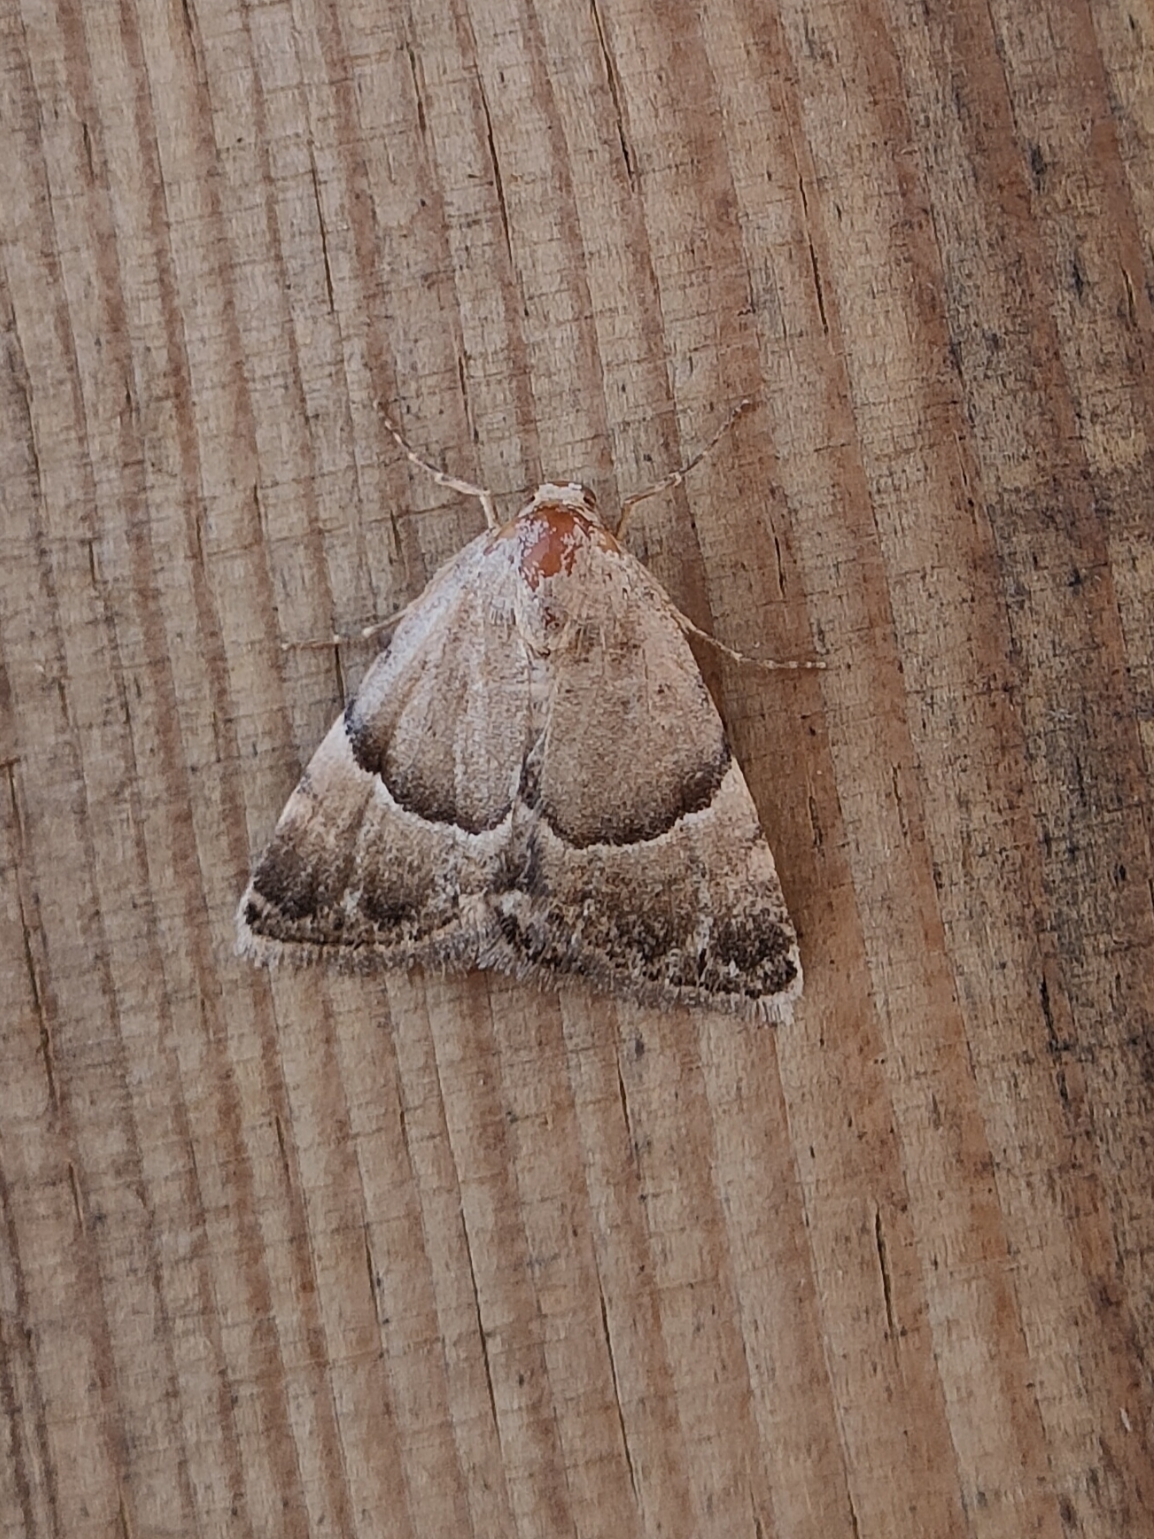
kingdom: Animalia
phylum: Arthropoda
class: Insecta
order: Lepidoptera
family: Noctuidae
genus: Odice
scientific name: Odice suava
